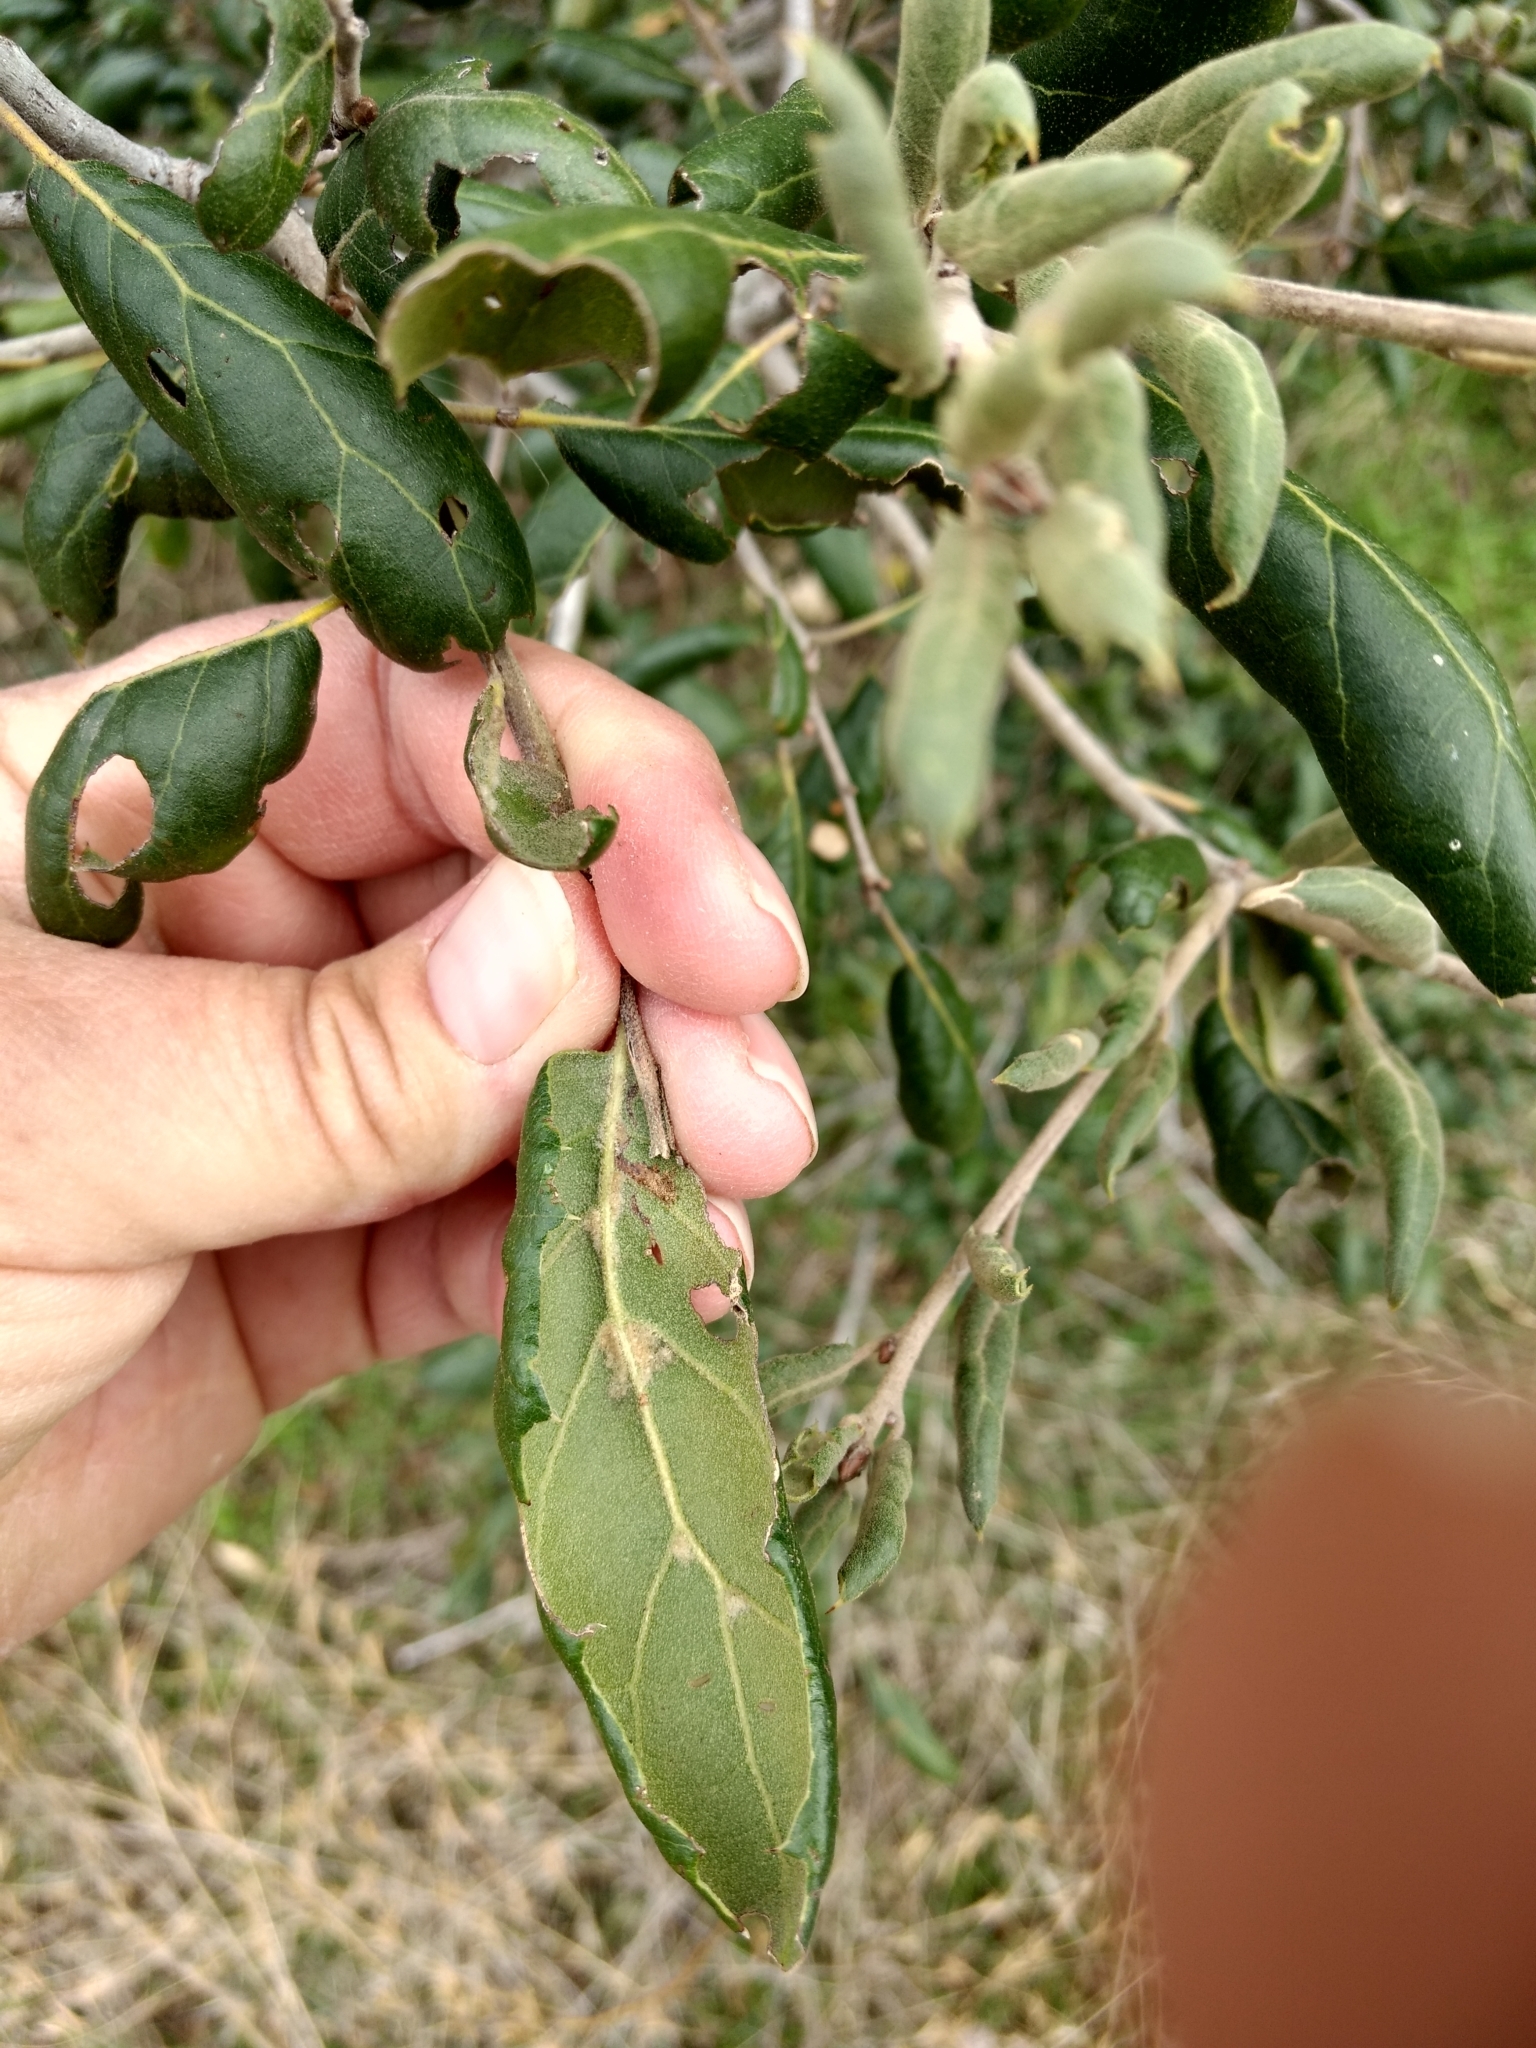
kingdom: Plantae
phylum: Tracheophyta
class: Magnoliopsida
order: Fagales
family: Fagaceae
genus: Quercus
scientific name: Quercus agrifolia
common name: California live oak
